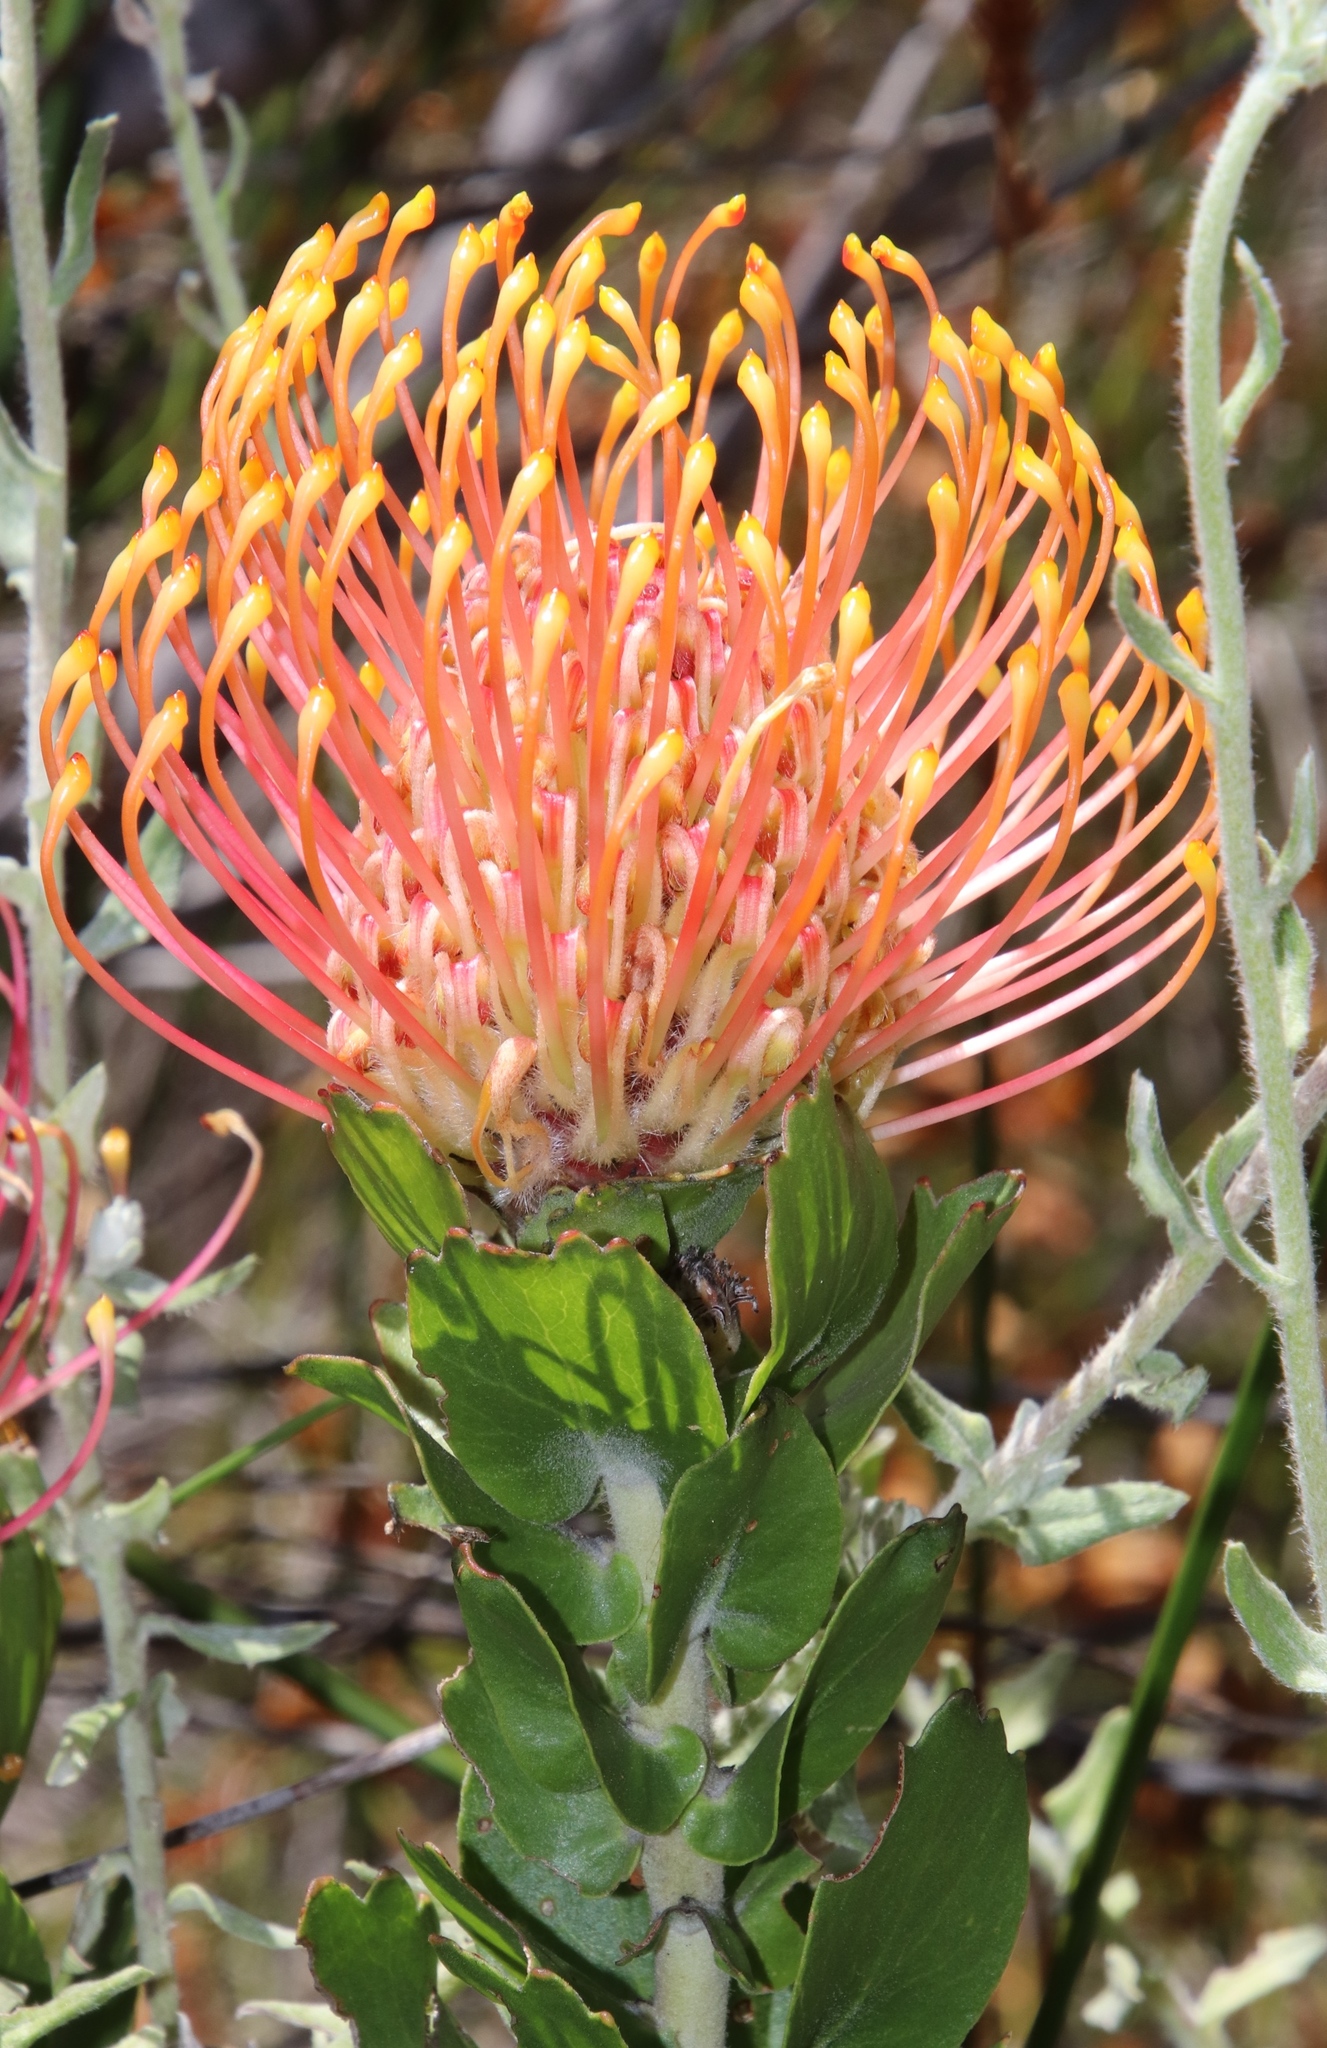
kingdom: Plantae
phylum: Tracheophyta
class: Magnoliopsida
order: Proteales
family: Proteaceae
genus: Leucospermum
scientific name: Leucospermum patersonii
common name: False tree pincushion
